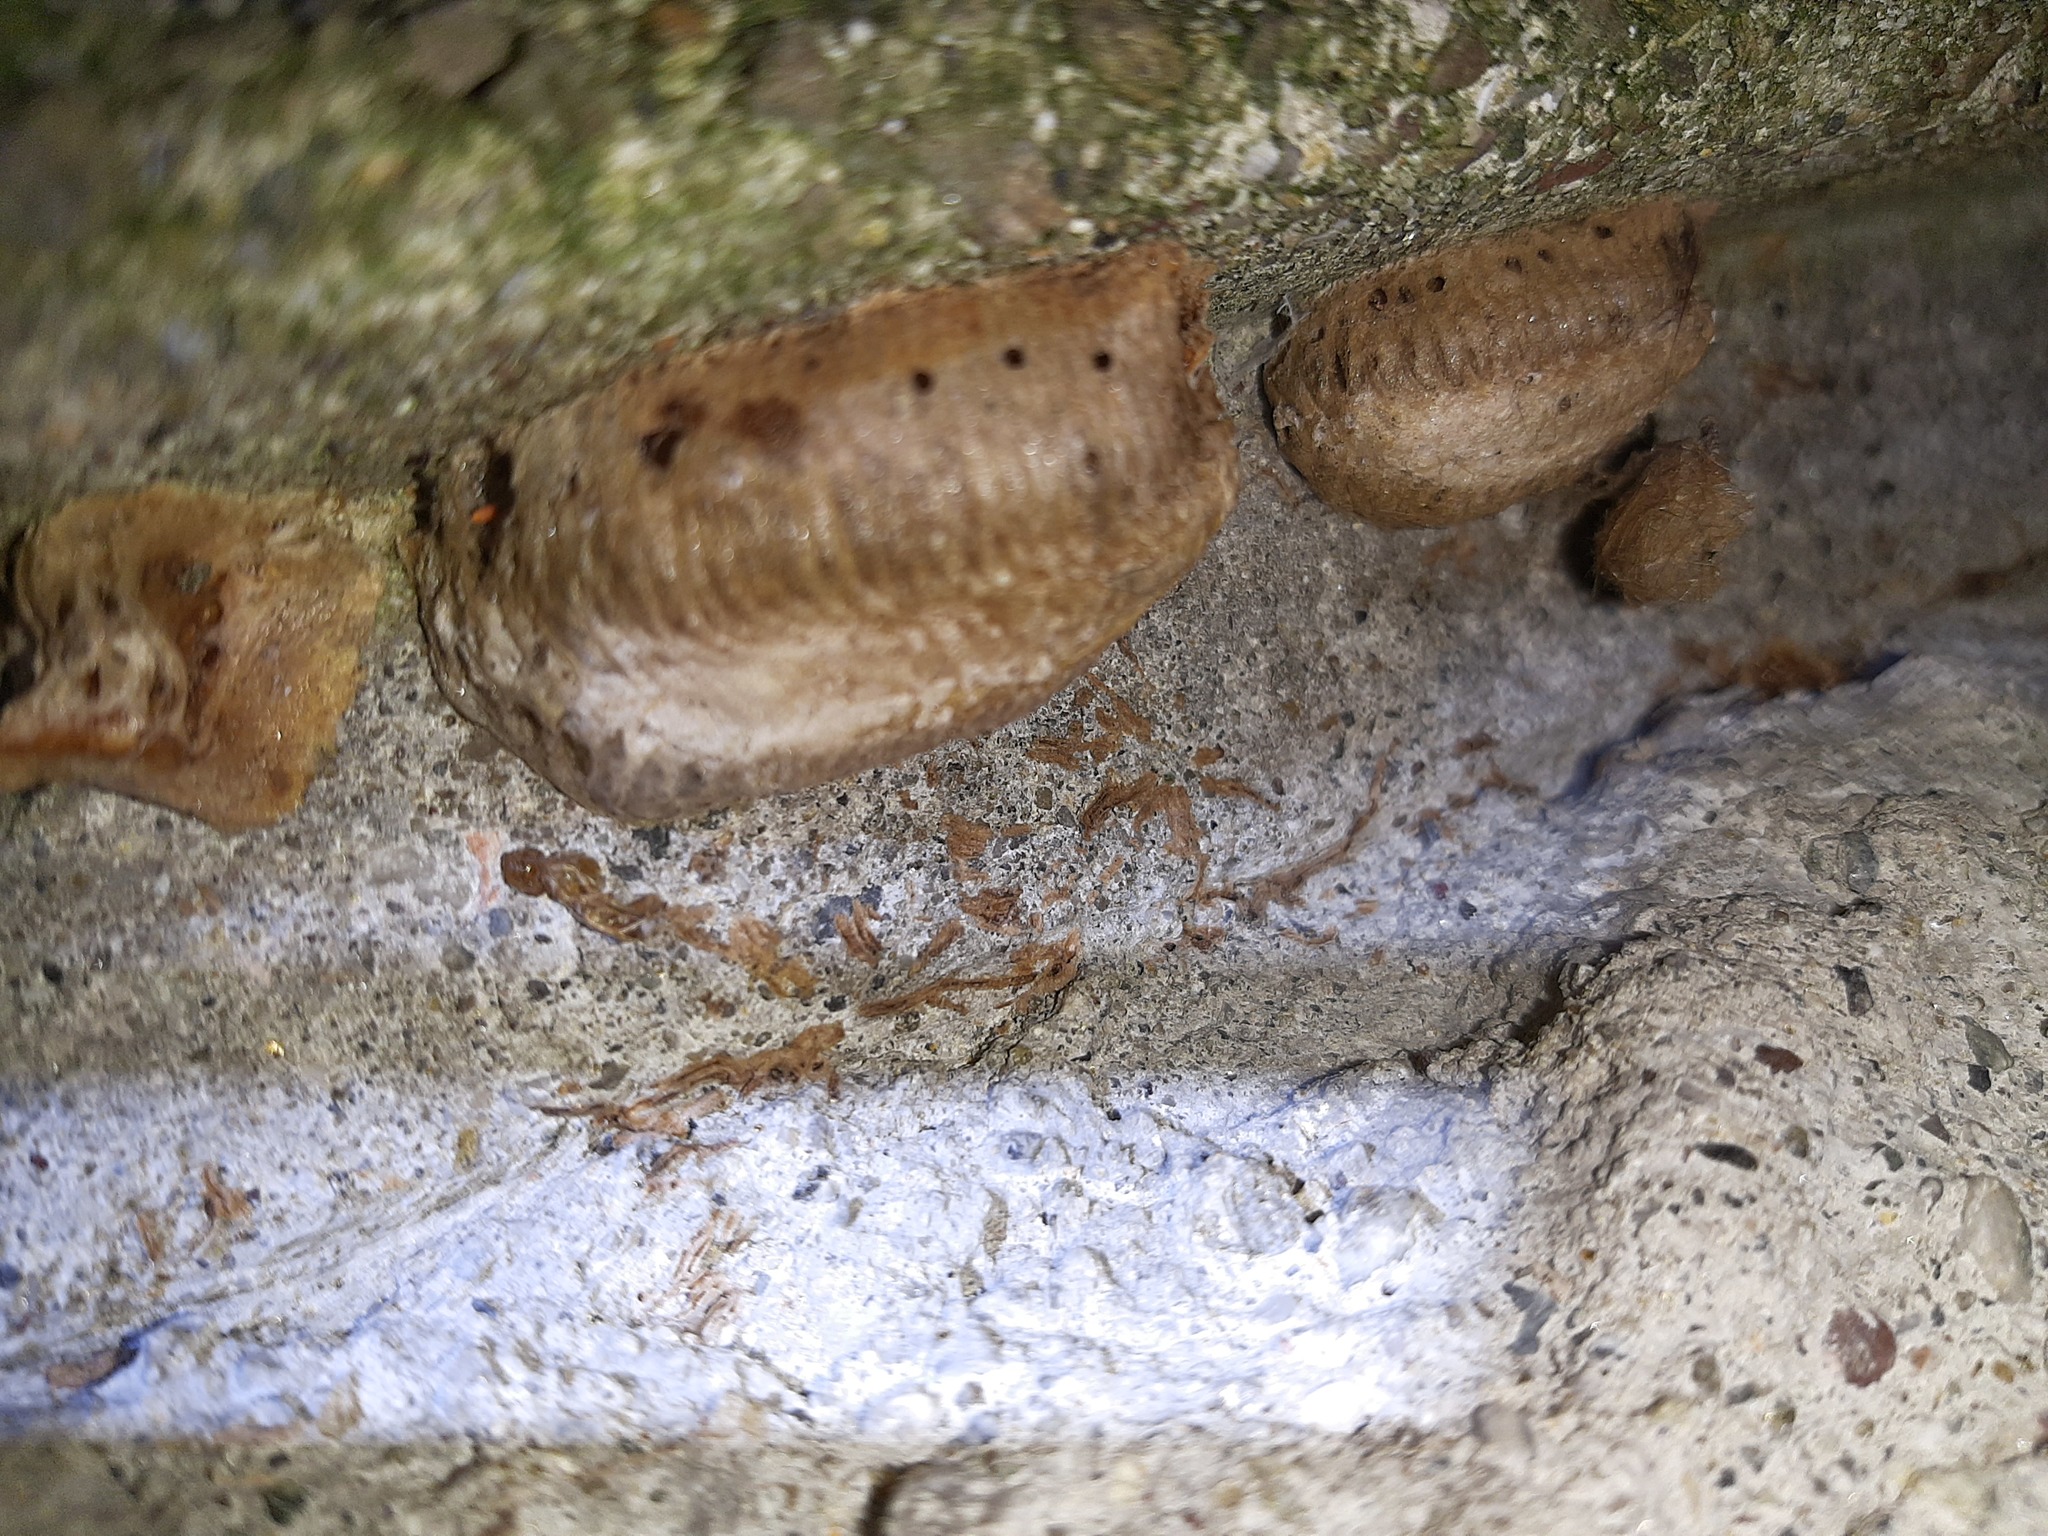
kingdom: Animalia
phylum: Arthropoda
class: Insecta
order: Mantodea
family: Mantidae
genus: Mantis
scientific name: Mantis religiosa
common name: Praying mantis
